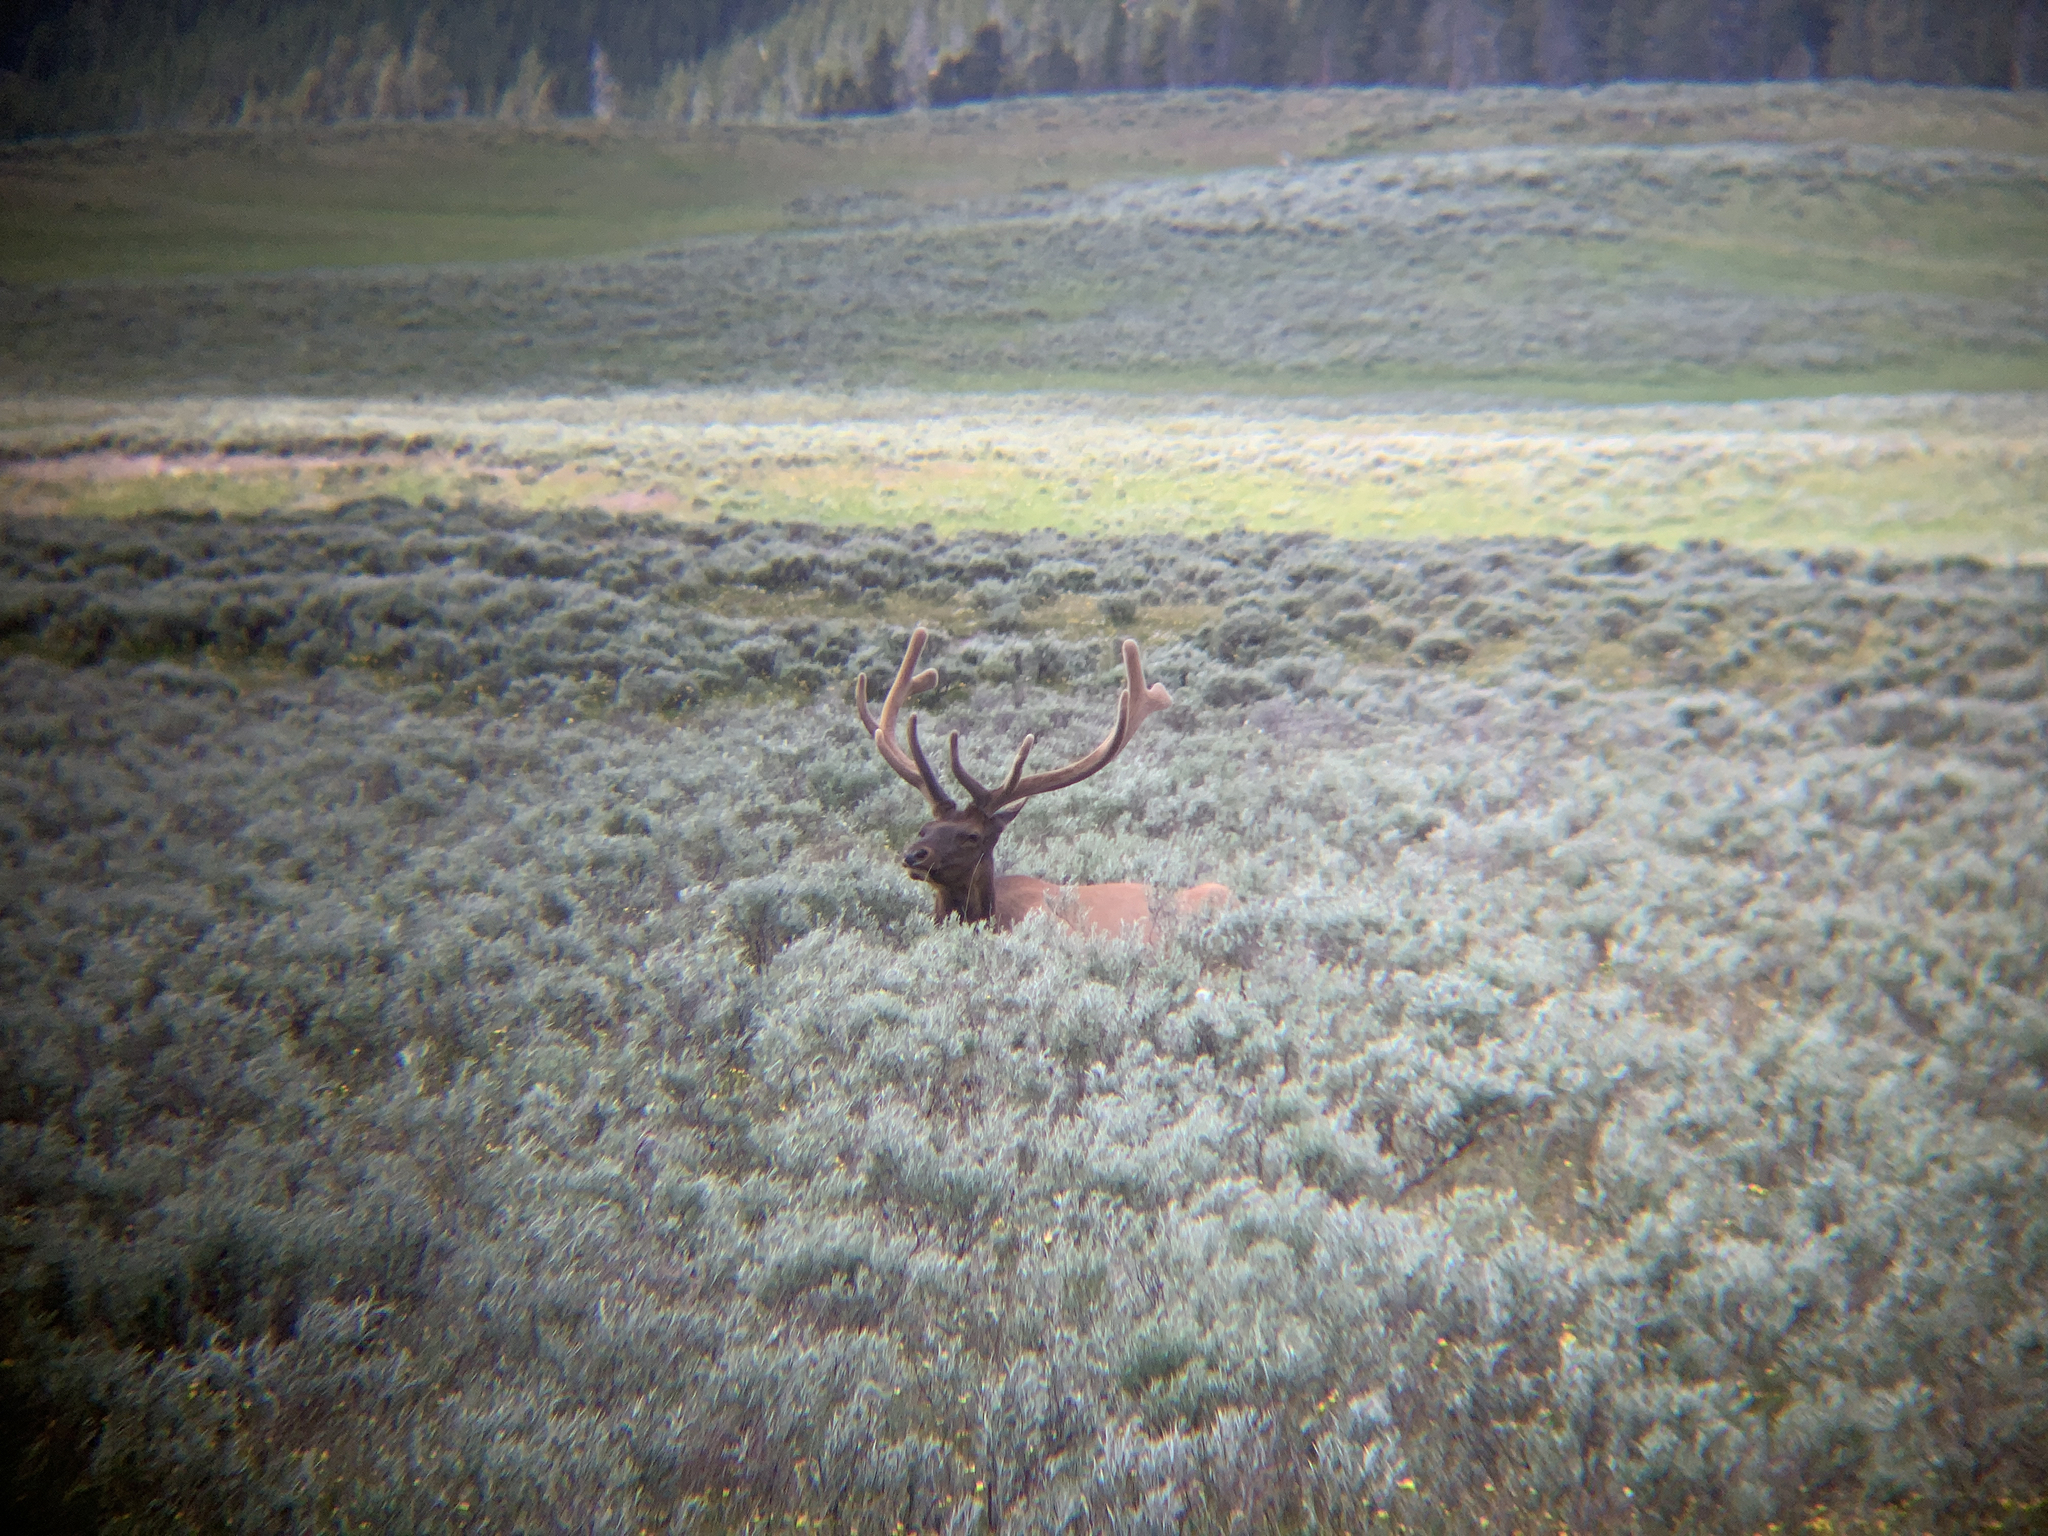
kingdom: Animalia
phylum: Chordata
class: Mammalia
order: Artiodactyla
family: Cervidae
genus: Cervus
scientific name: Cervus elaphus
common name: Red deer
